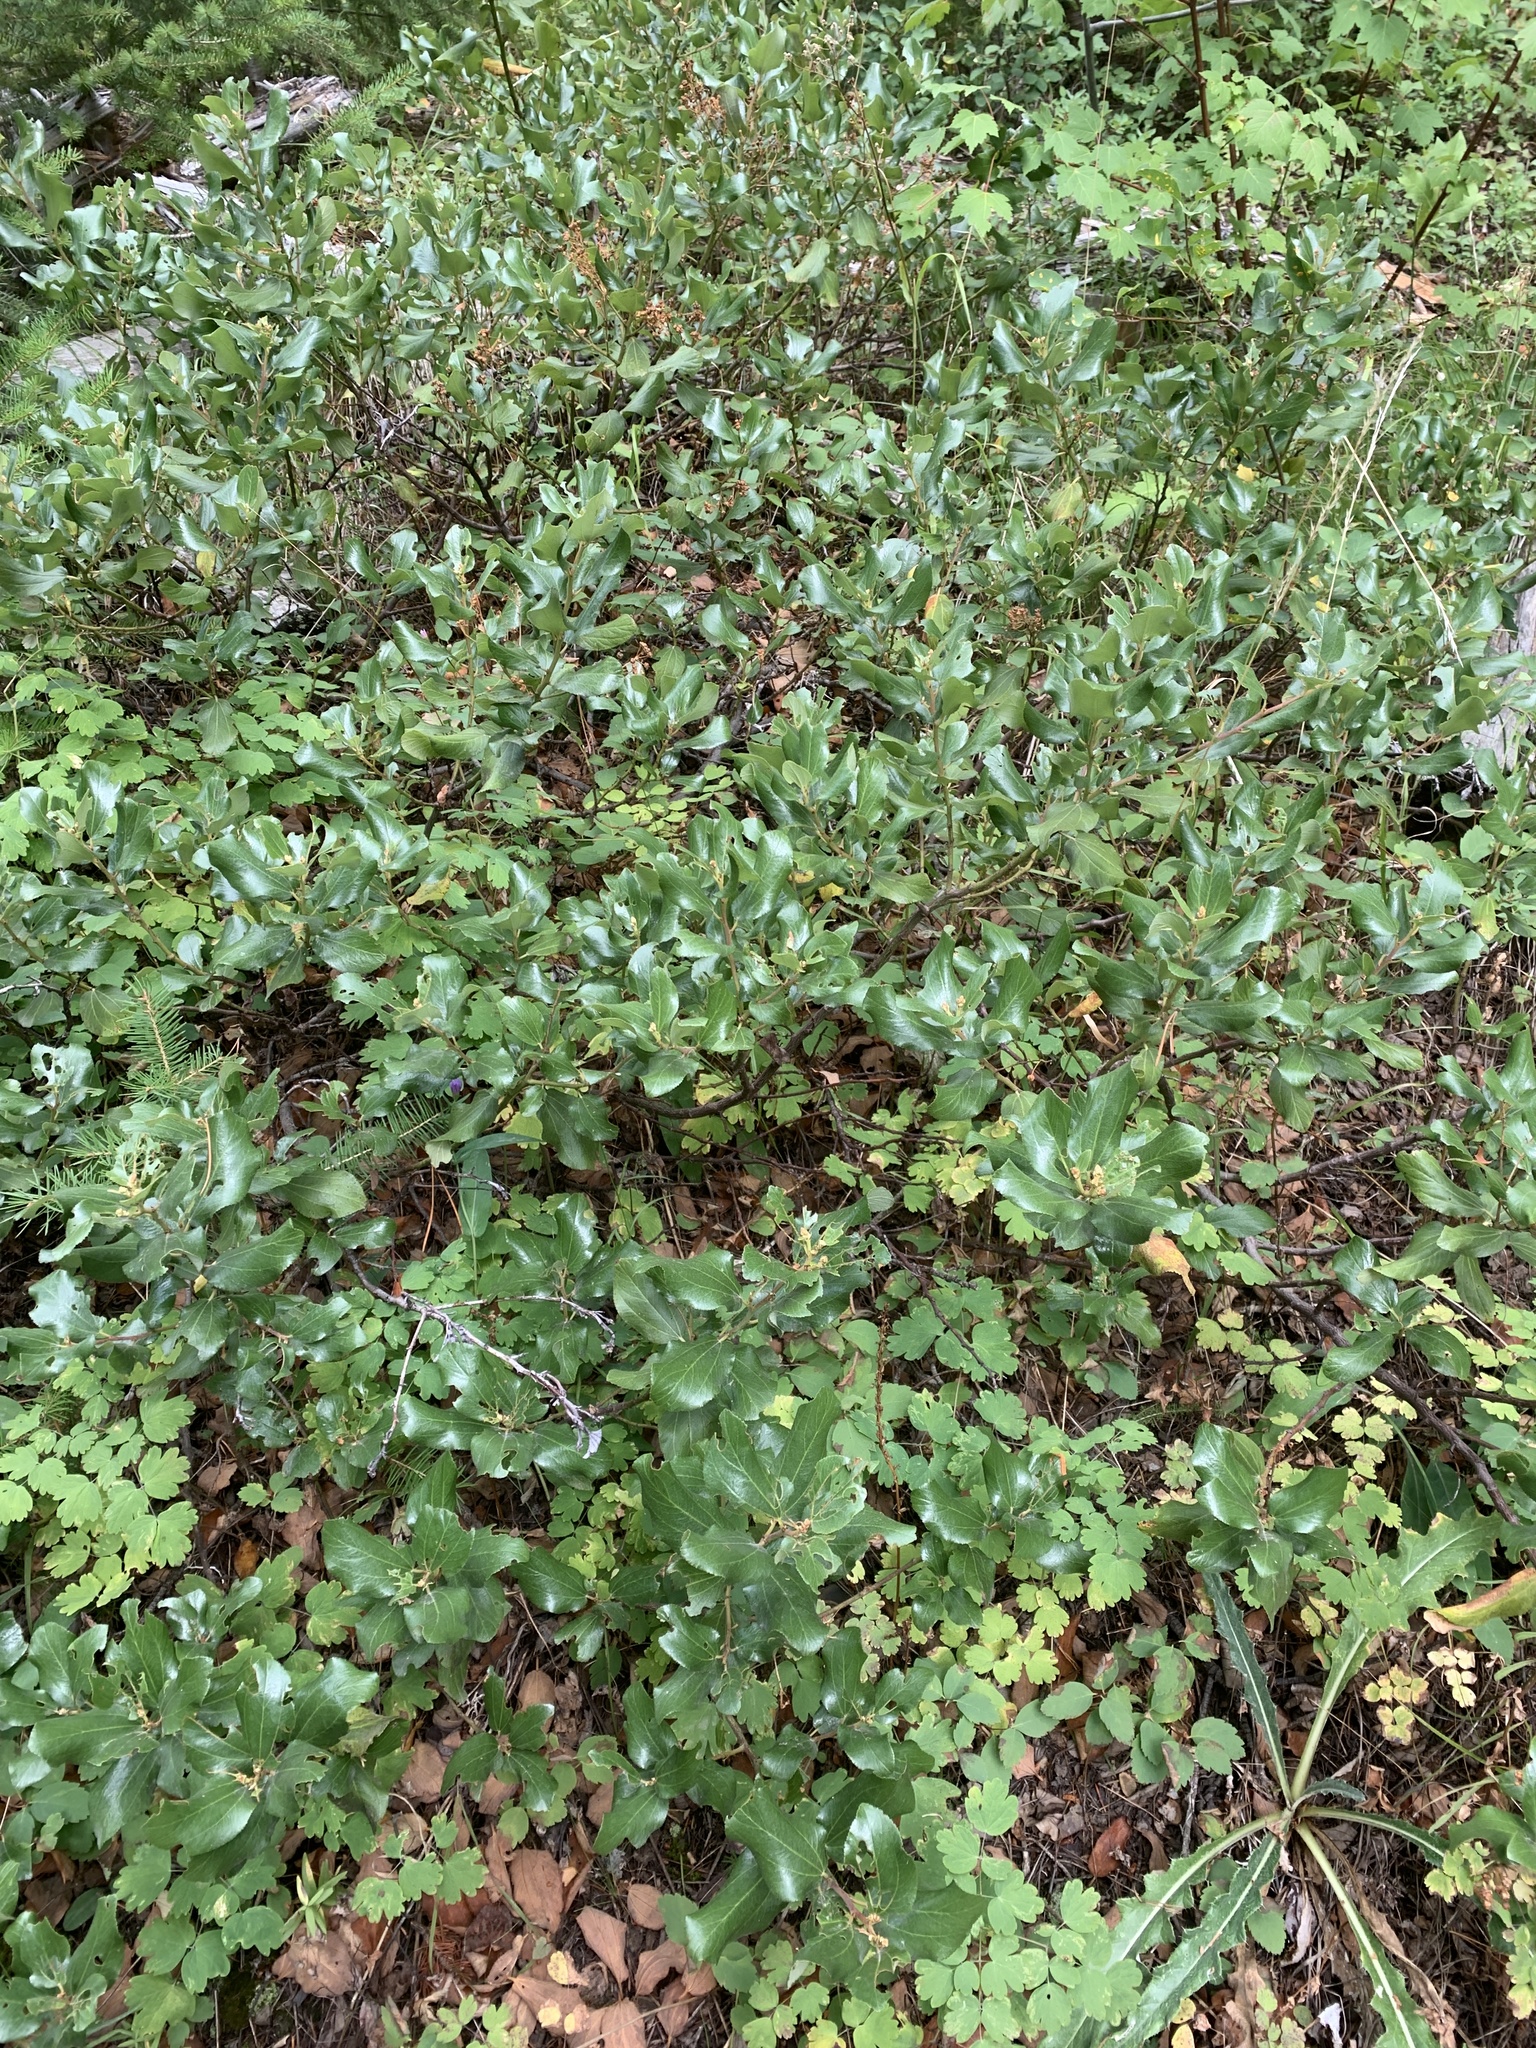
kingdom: Plantae
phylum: Tracheophyta
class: Magnoliopsida
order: Rosales
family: Rhamnaceae
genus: Ceanothus
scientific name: Ceanothus velutinus
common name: Snowbrush
